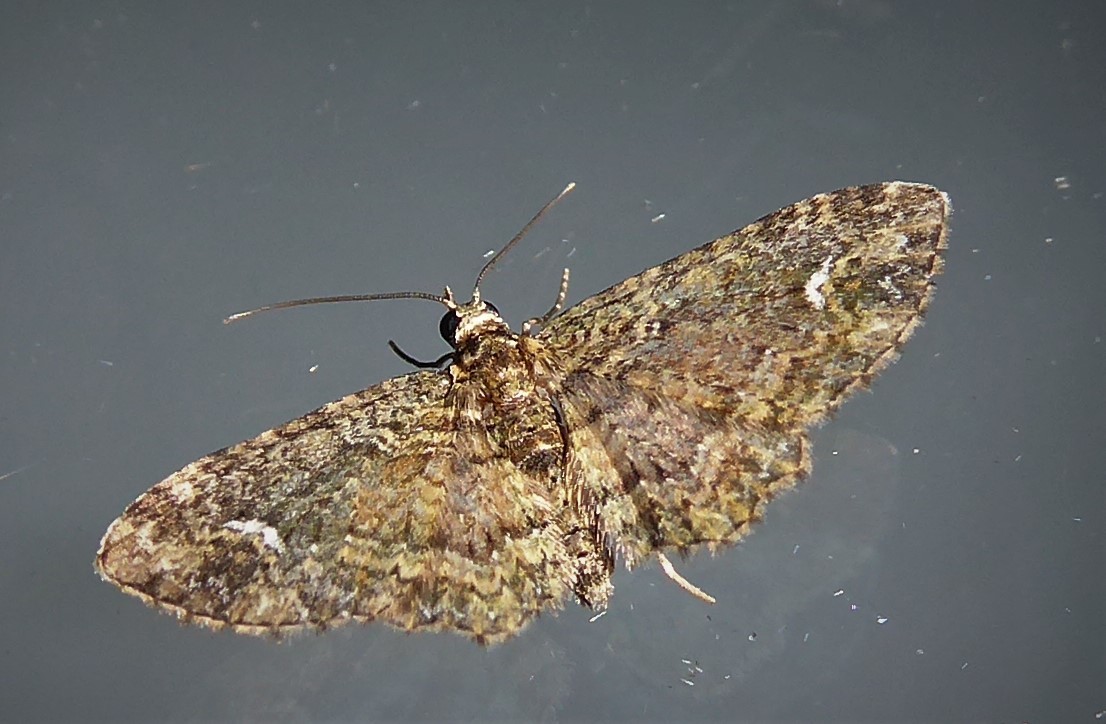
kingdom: Animalia
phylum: Arthropoda
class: Insecta
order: Lepidoptera
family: Geometridae
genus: Pasiphilodes
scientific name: Pasiphilodes testulata
